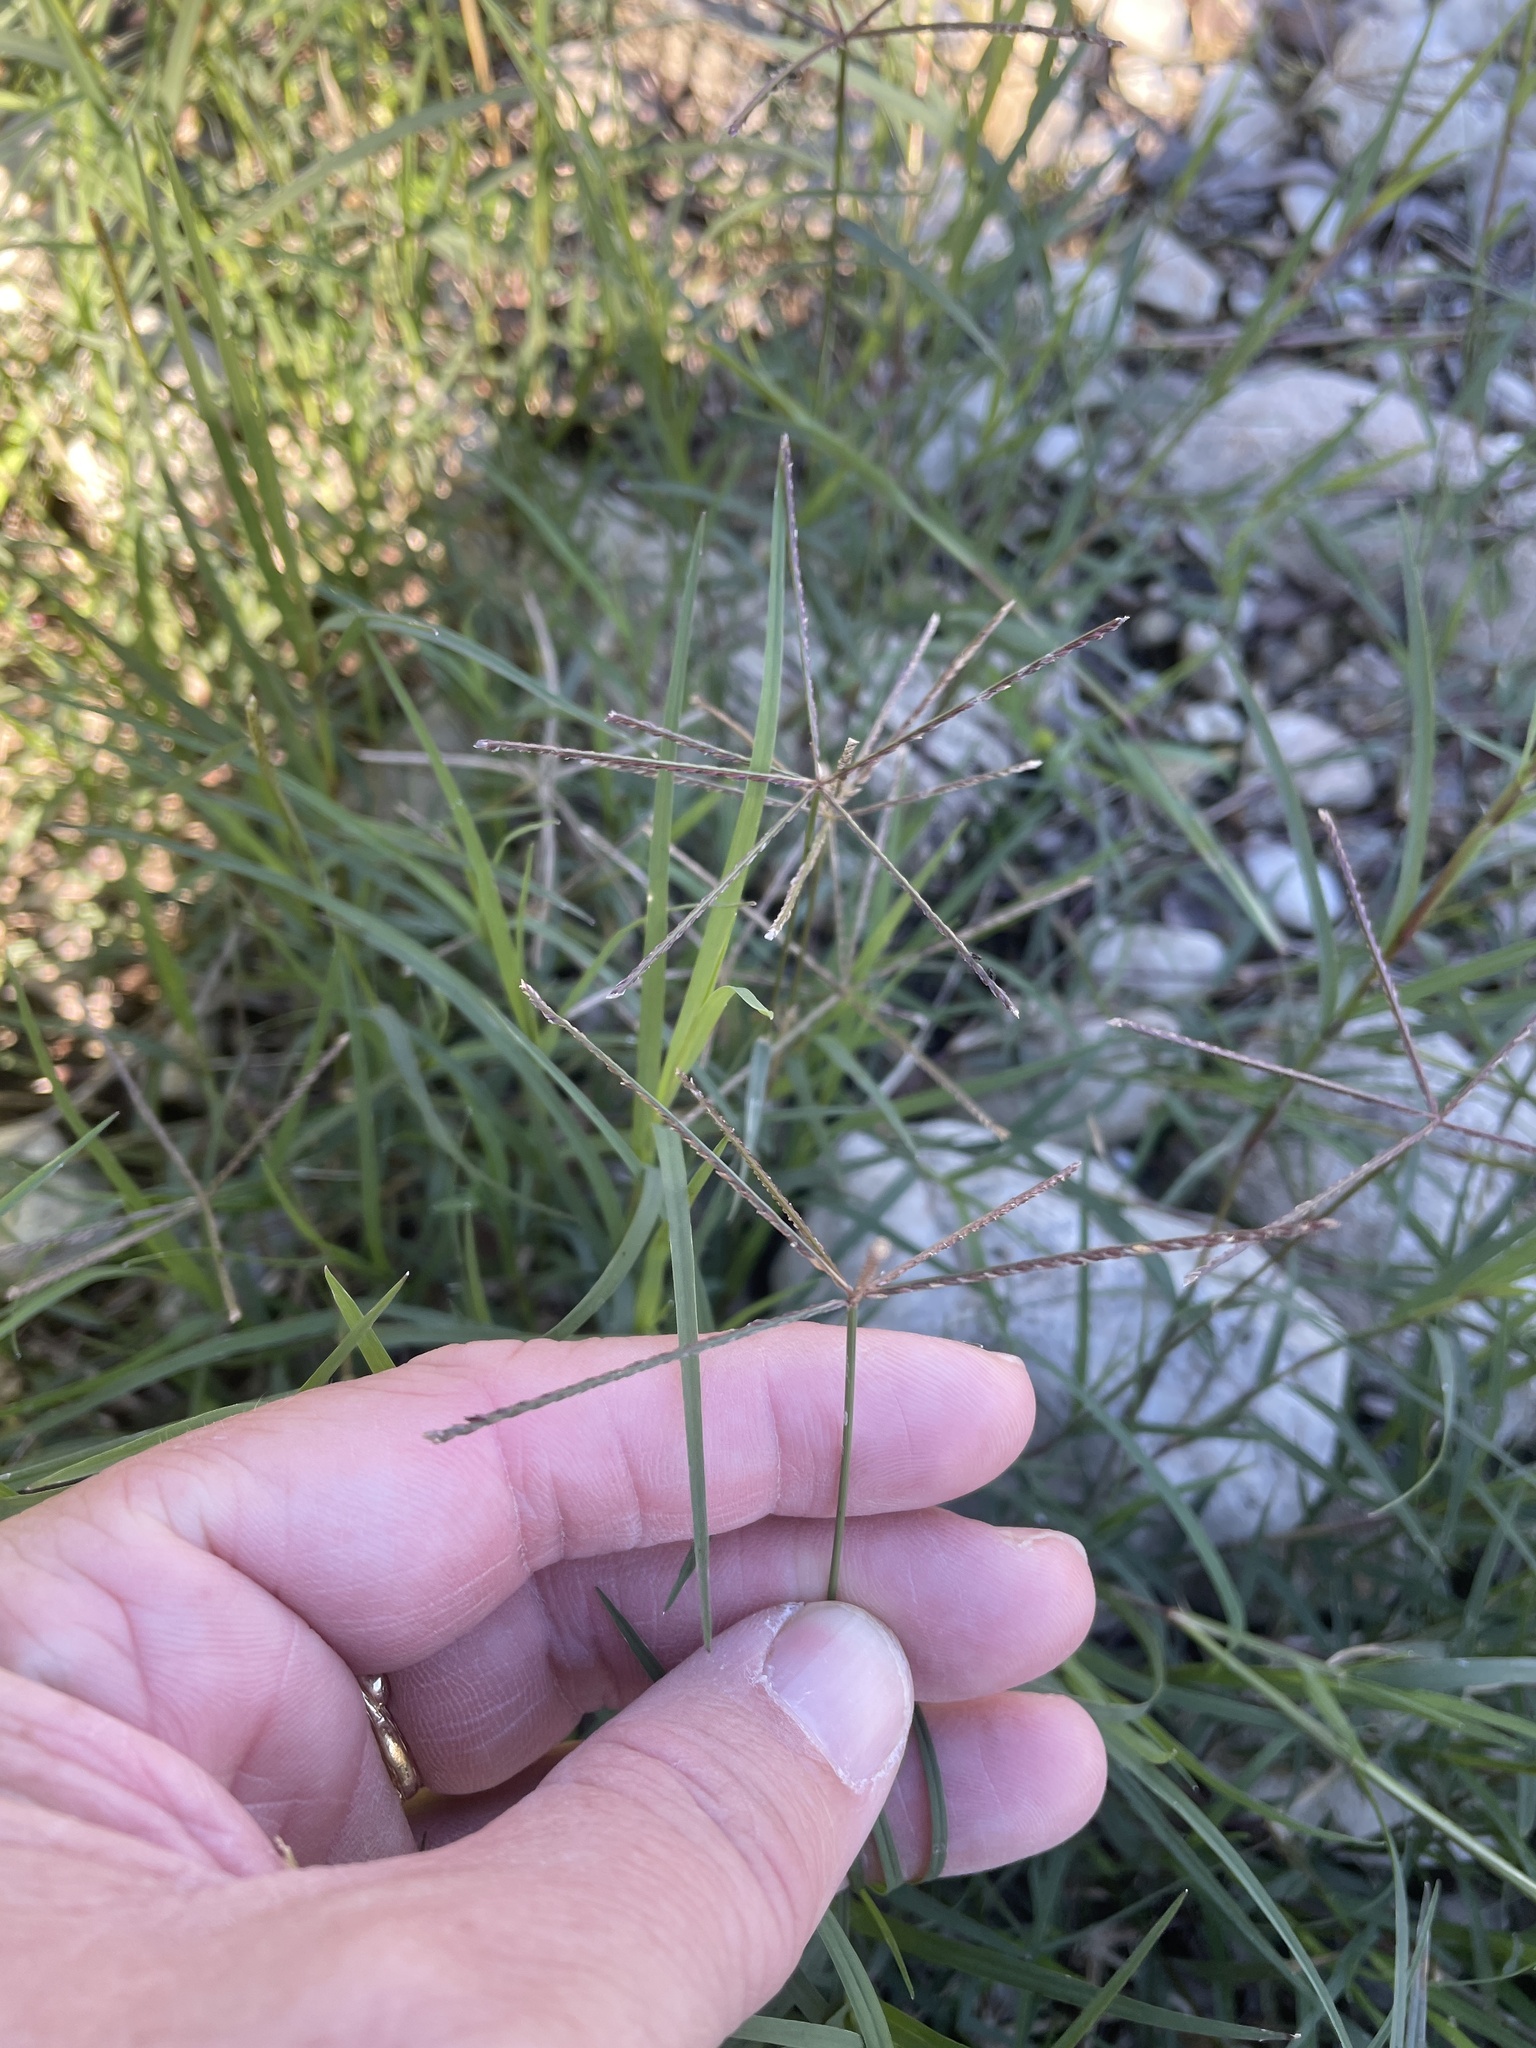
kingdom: Plantae
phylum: Tracheophyta
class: Liliopsida
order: Poales
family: Poaceae
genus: Cynodon
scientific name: Cynodon dactylon
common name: Bermuda grass
